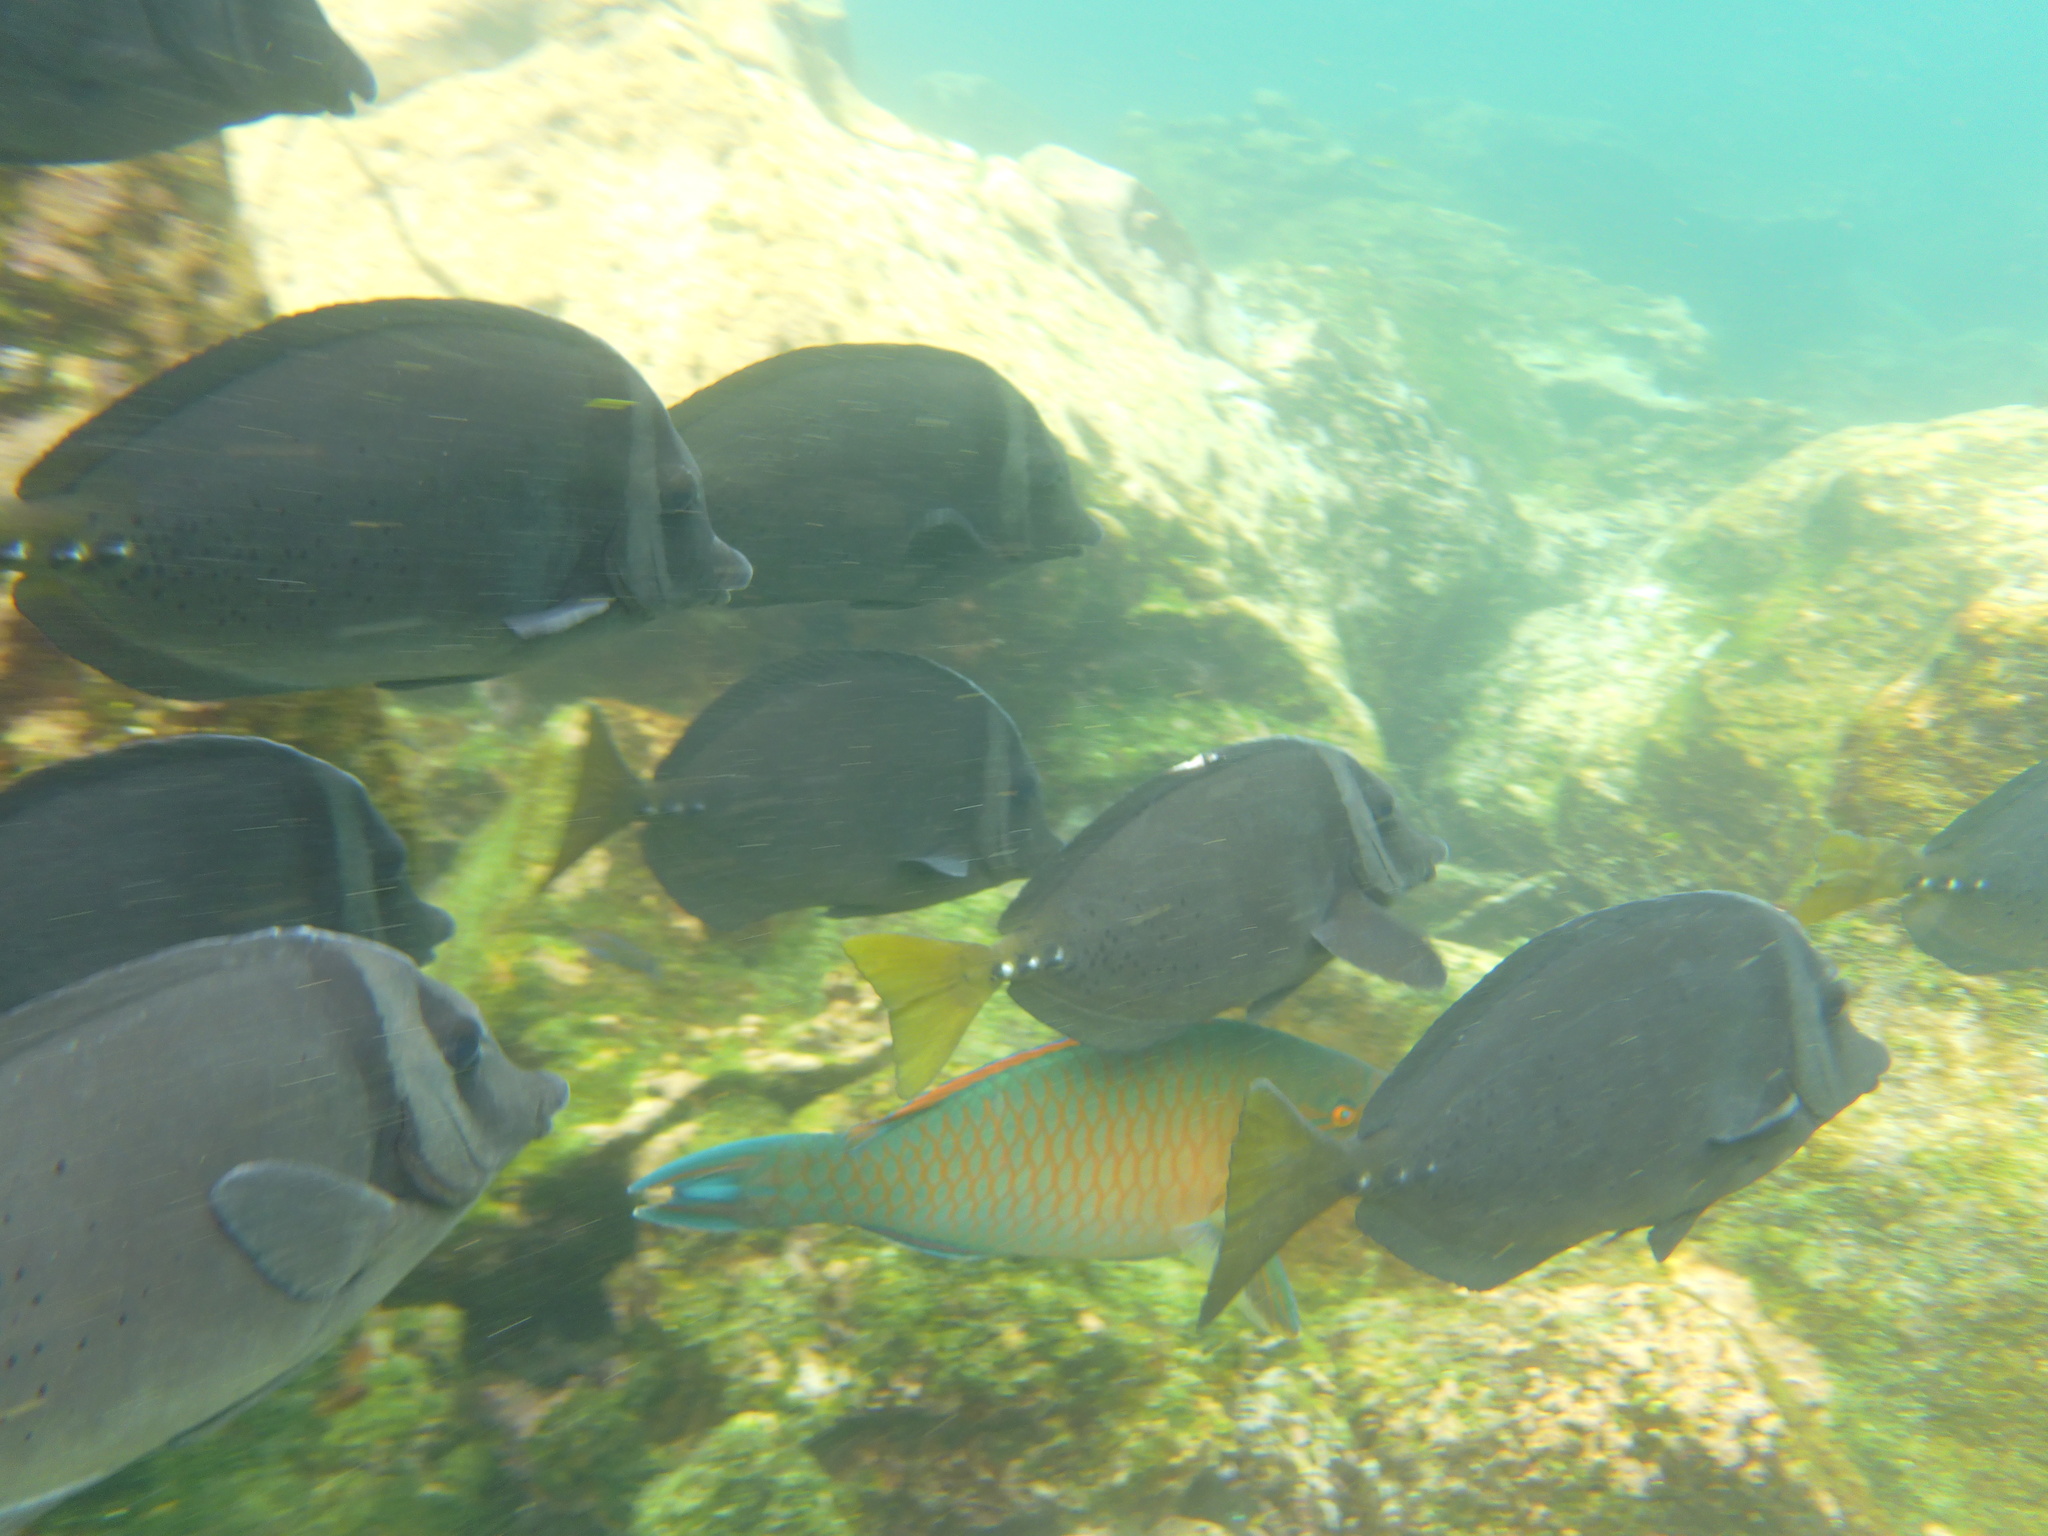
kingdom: Animalia
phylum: Chordata
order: Perciformes
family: Scaridae
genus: Scarus
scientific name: Scarus ghobban
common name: Blue-barred parrotfish
